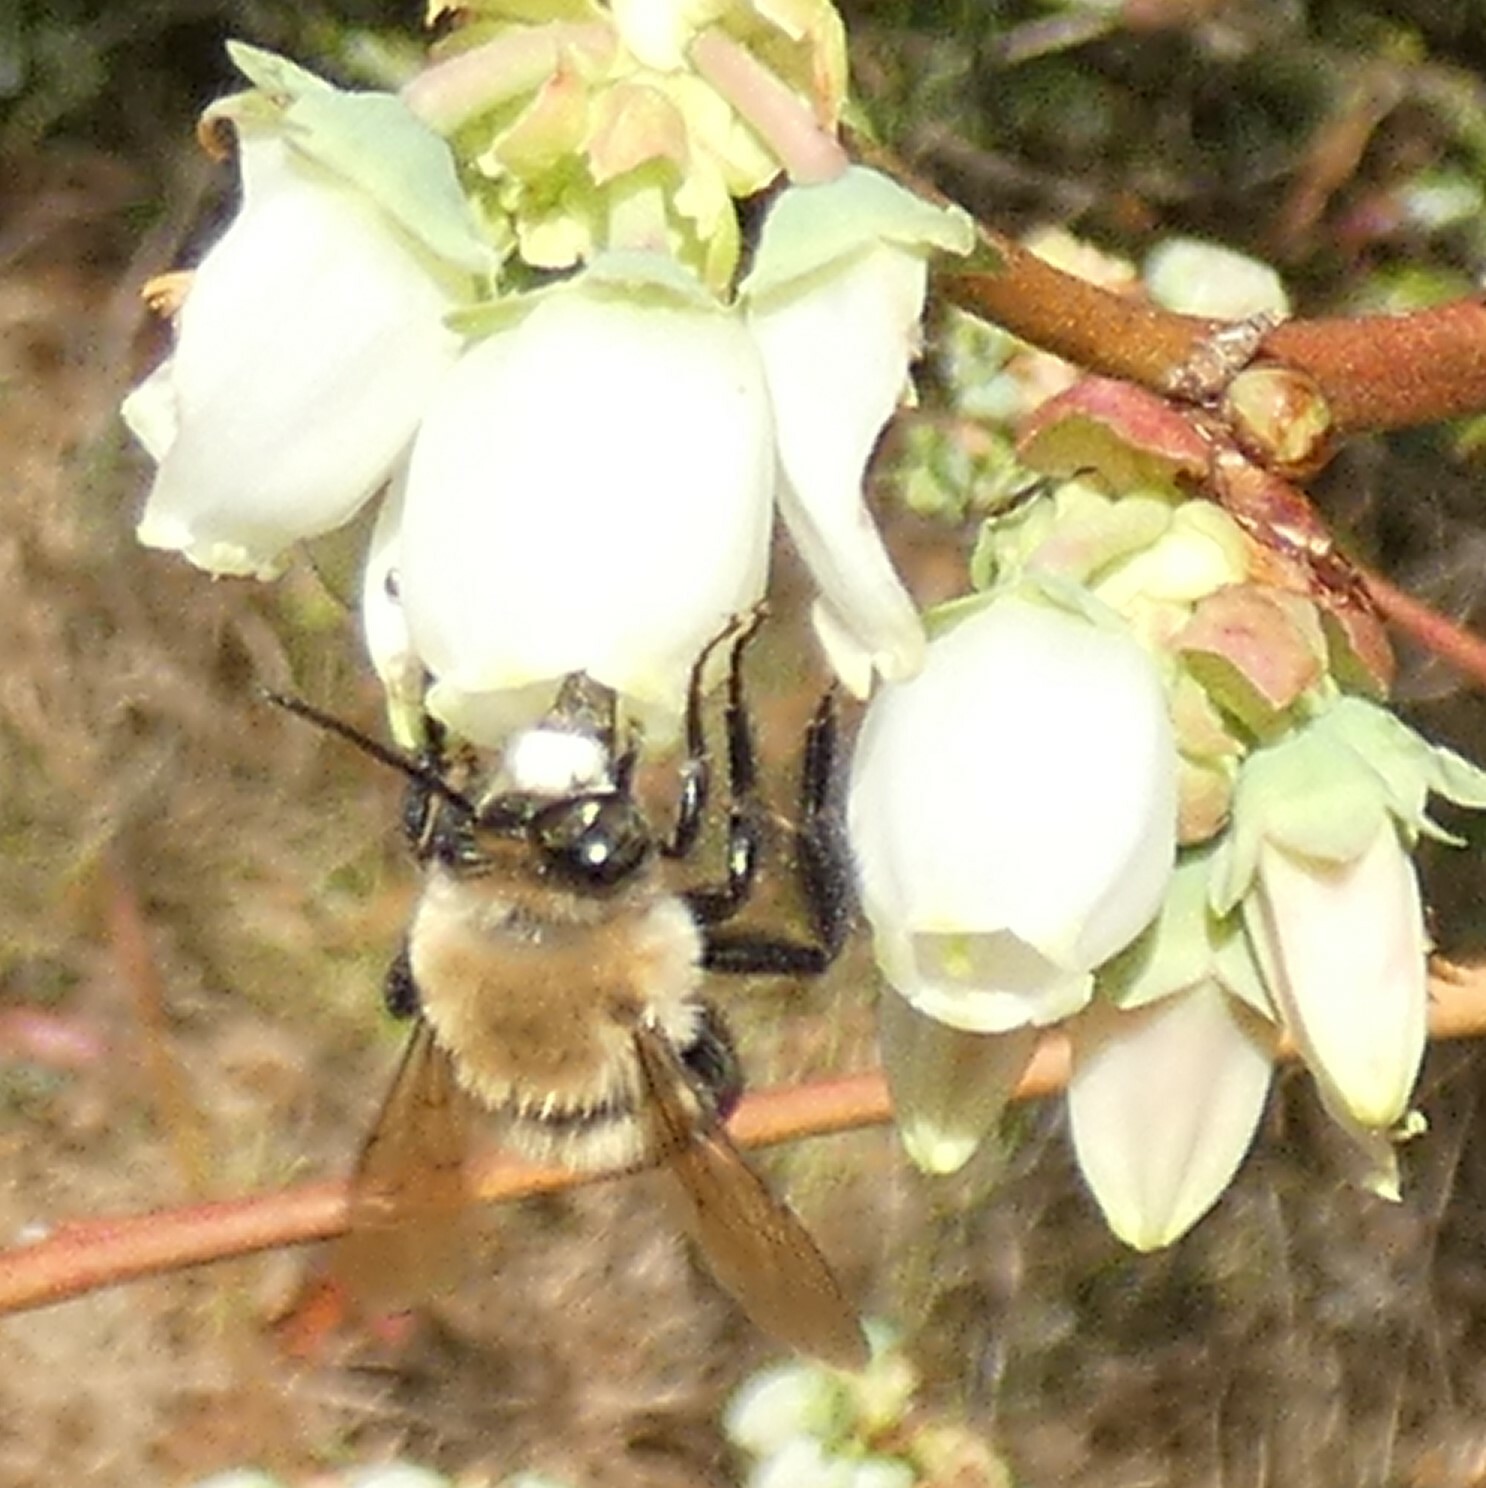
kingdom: Animalia
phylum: Arthropoda
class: Insecta
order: Hymenoptera
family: Apidae
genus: Habropoda
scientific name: Habropoda laboriosa
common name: Southeastern blueberry bee
